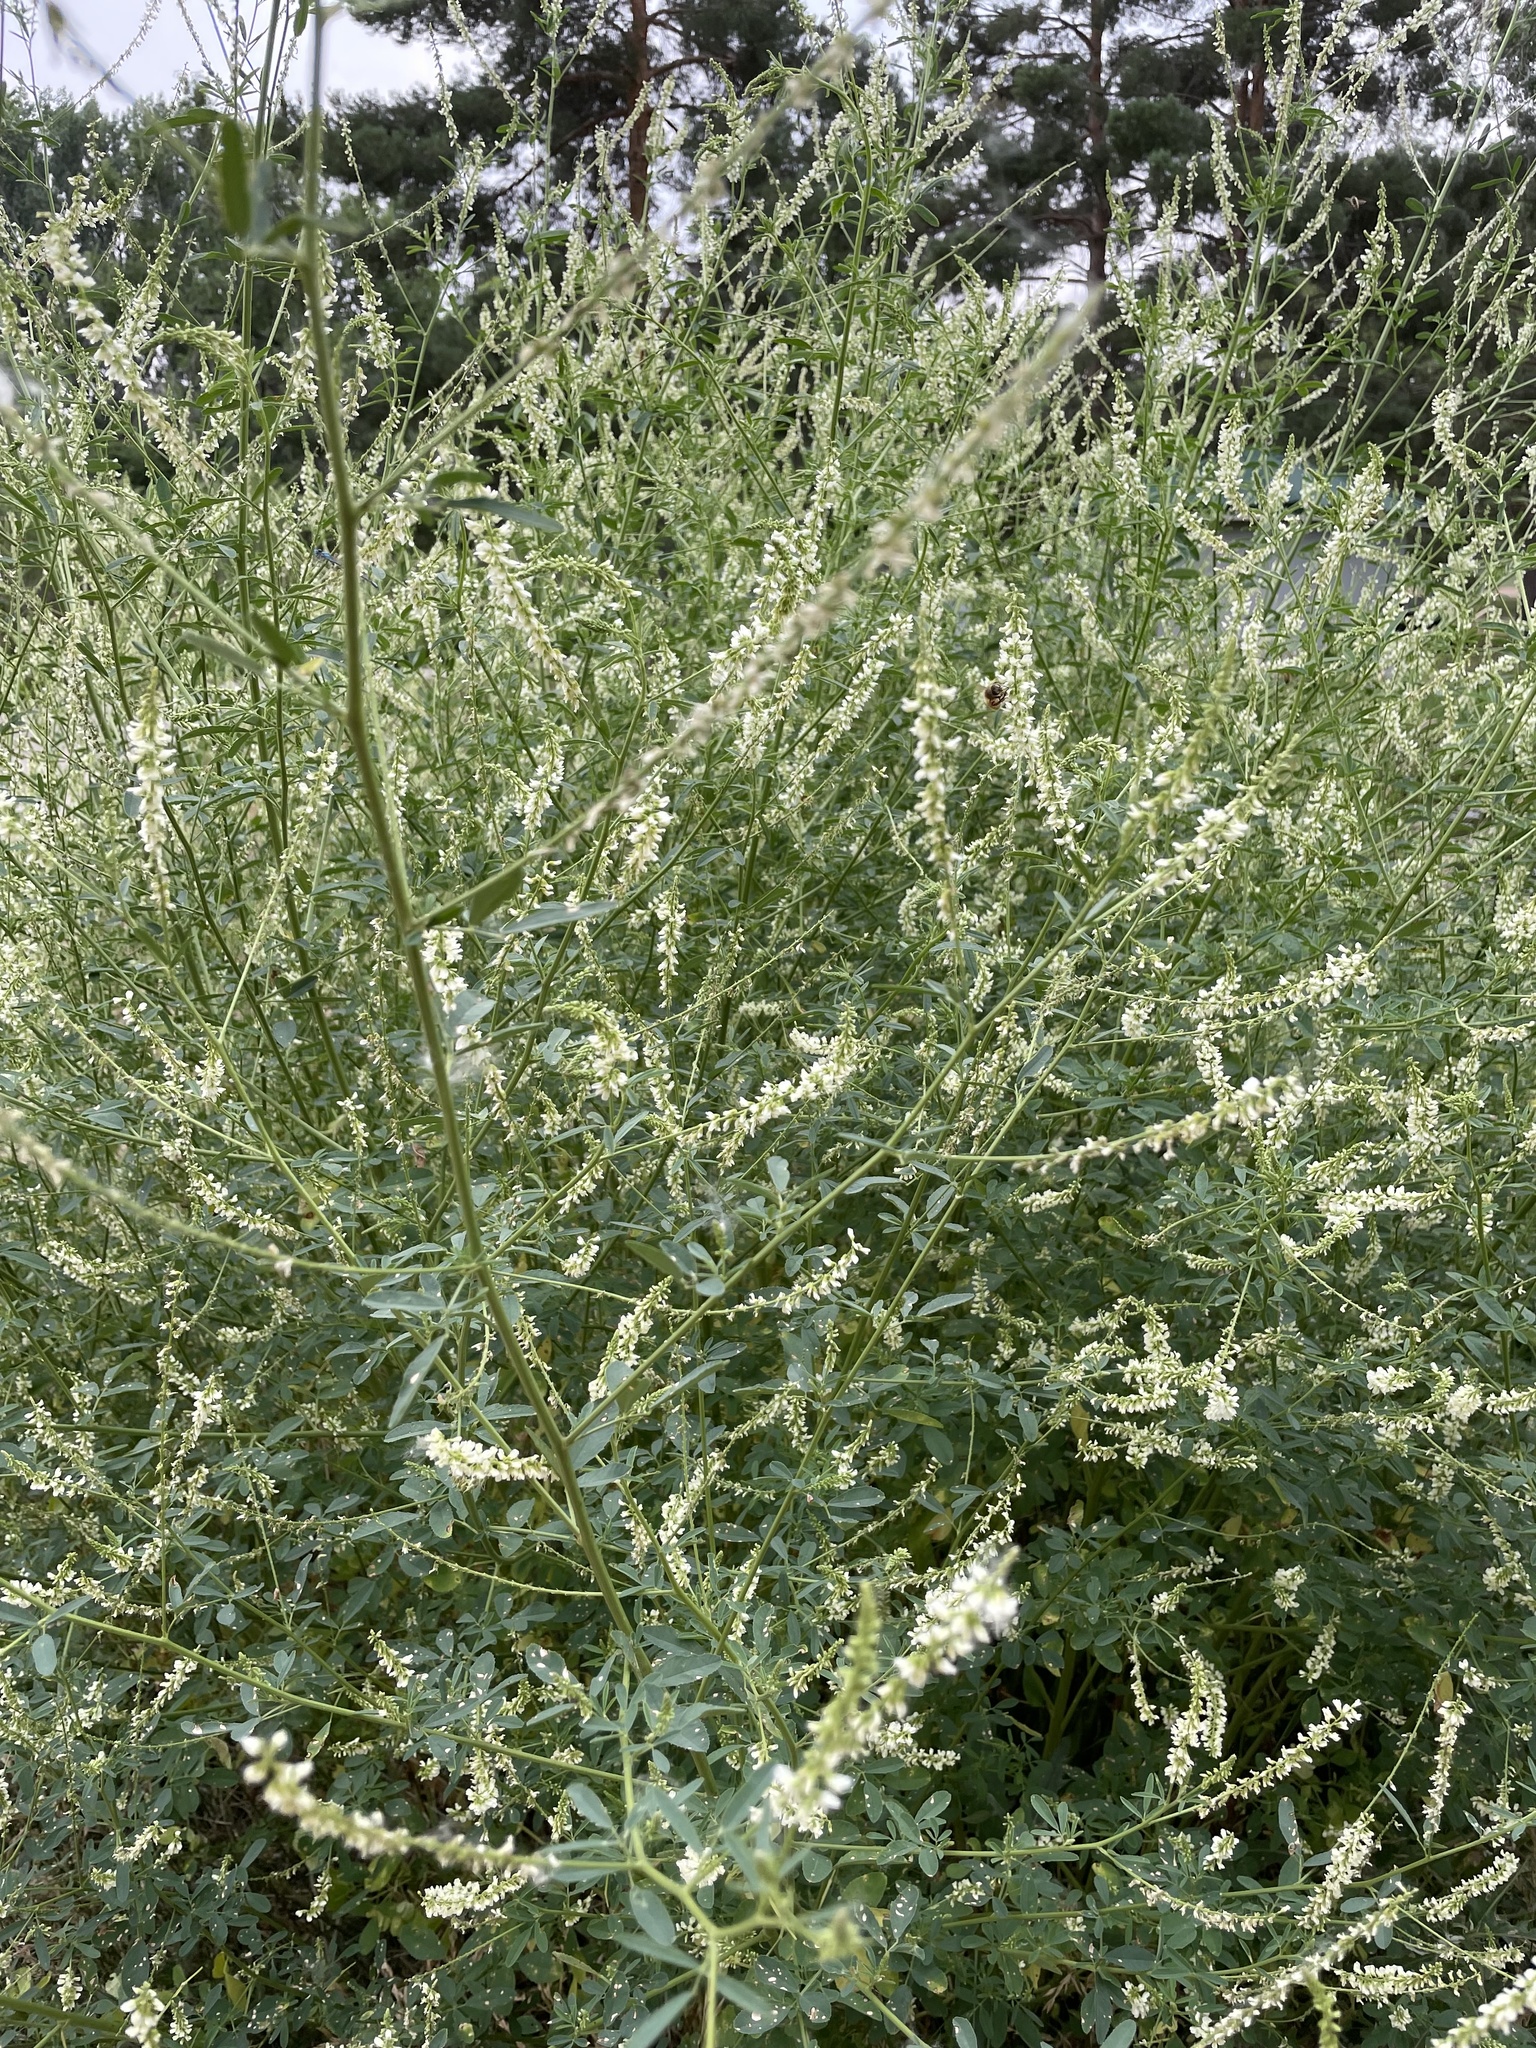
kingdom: Plantae
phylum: Tracheophyta
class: Magnoliopsida
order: Fabales
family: Fabaceae
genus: Melilotus
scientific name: Melilotus albus
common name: White melilot
